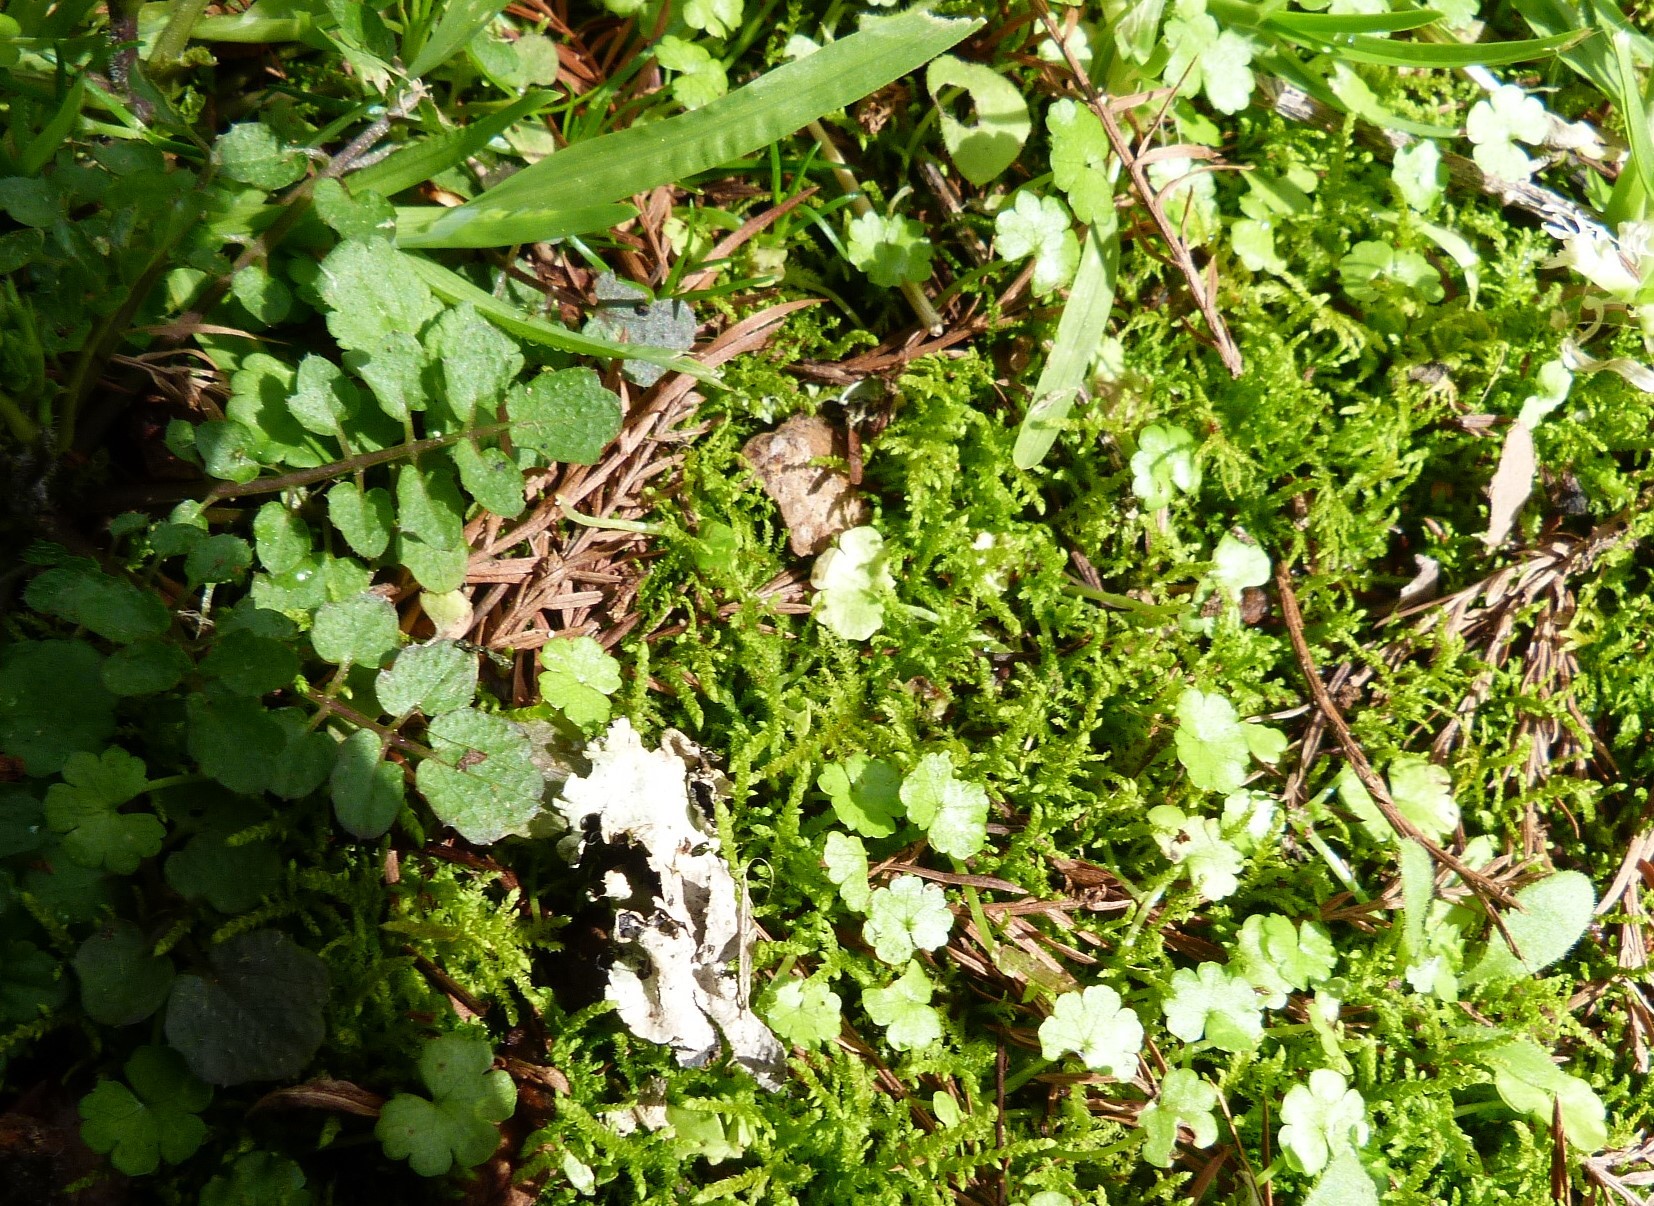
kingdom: Plantae
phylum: Tracheophyta
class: Magnoliopsida
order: Apiales
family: Araliaceae
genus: Hydrocotyle
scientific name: Hydrocotyle heteromeria
